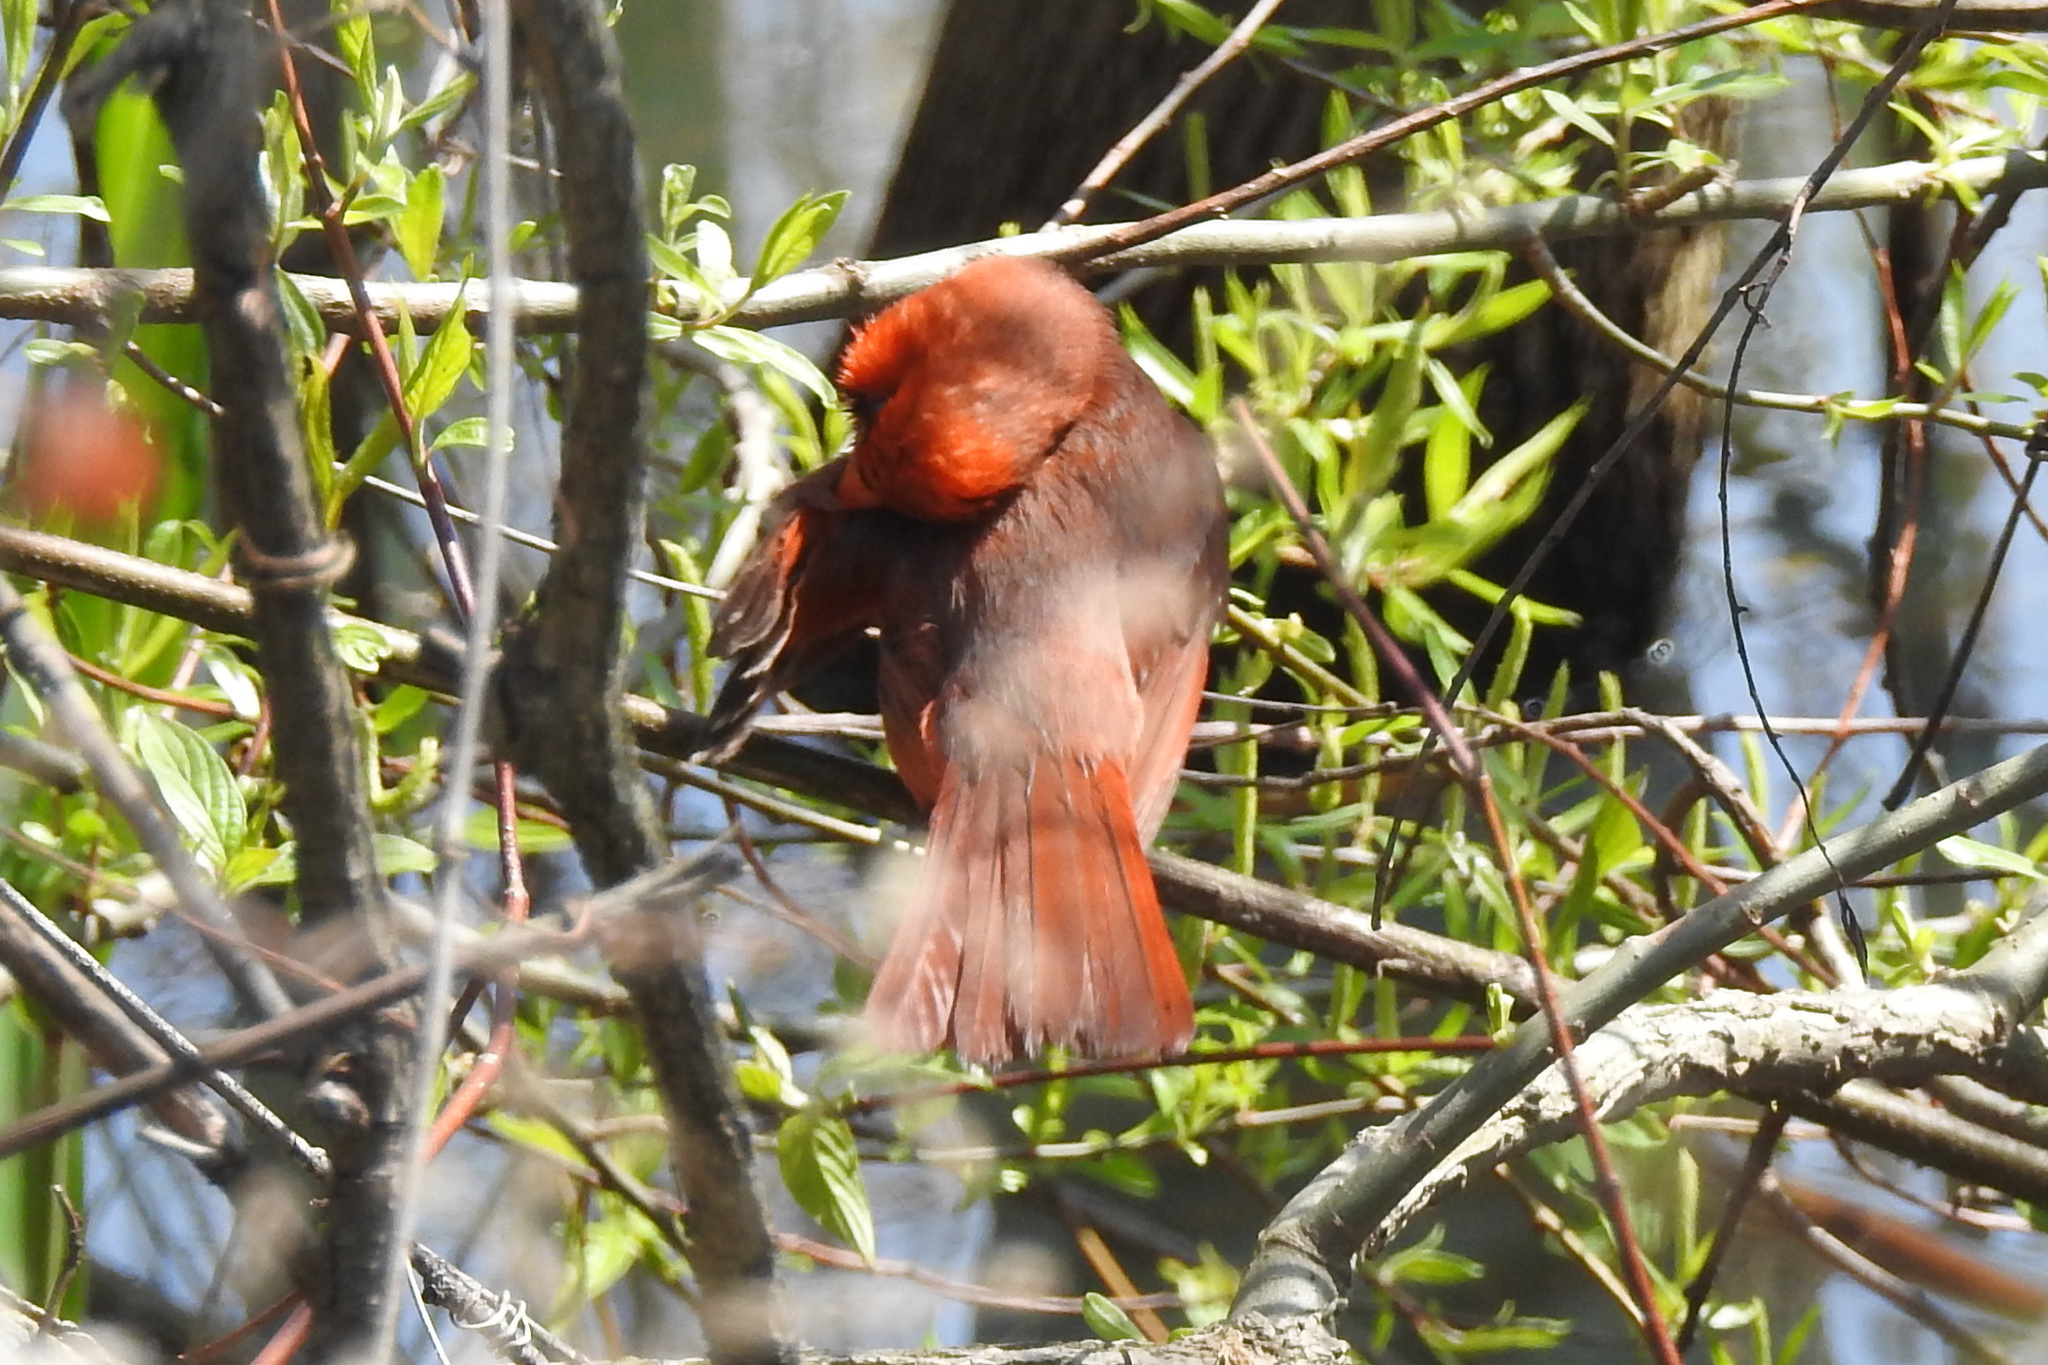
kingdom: Animalia
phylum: Chordata
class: Aves
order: Passeriformes
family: Cardinalidae
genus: Cardinalis
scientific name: Cardinalis cardinalis
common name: Northern cardinal
